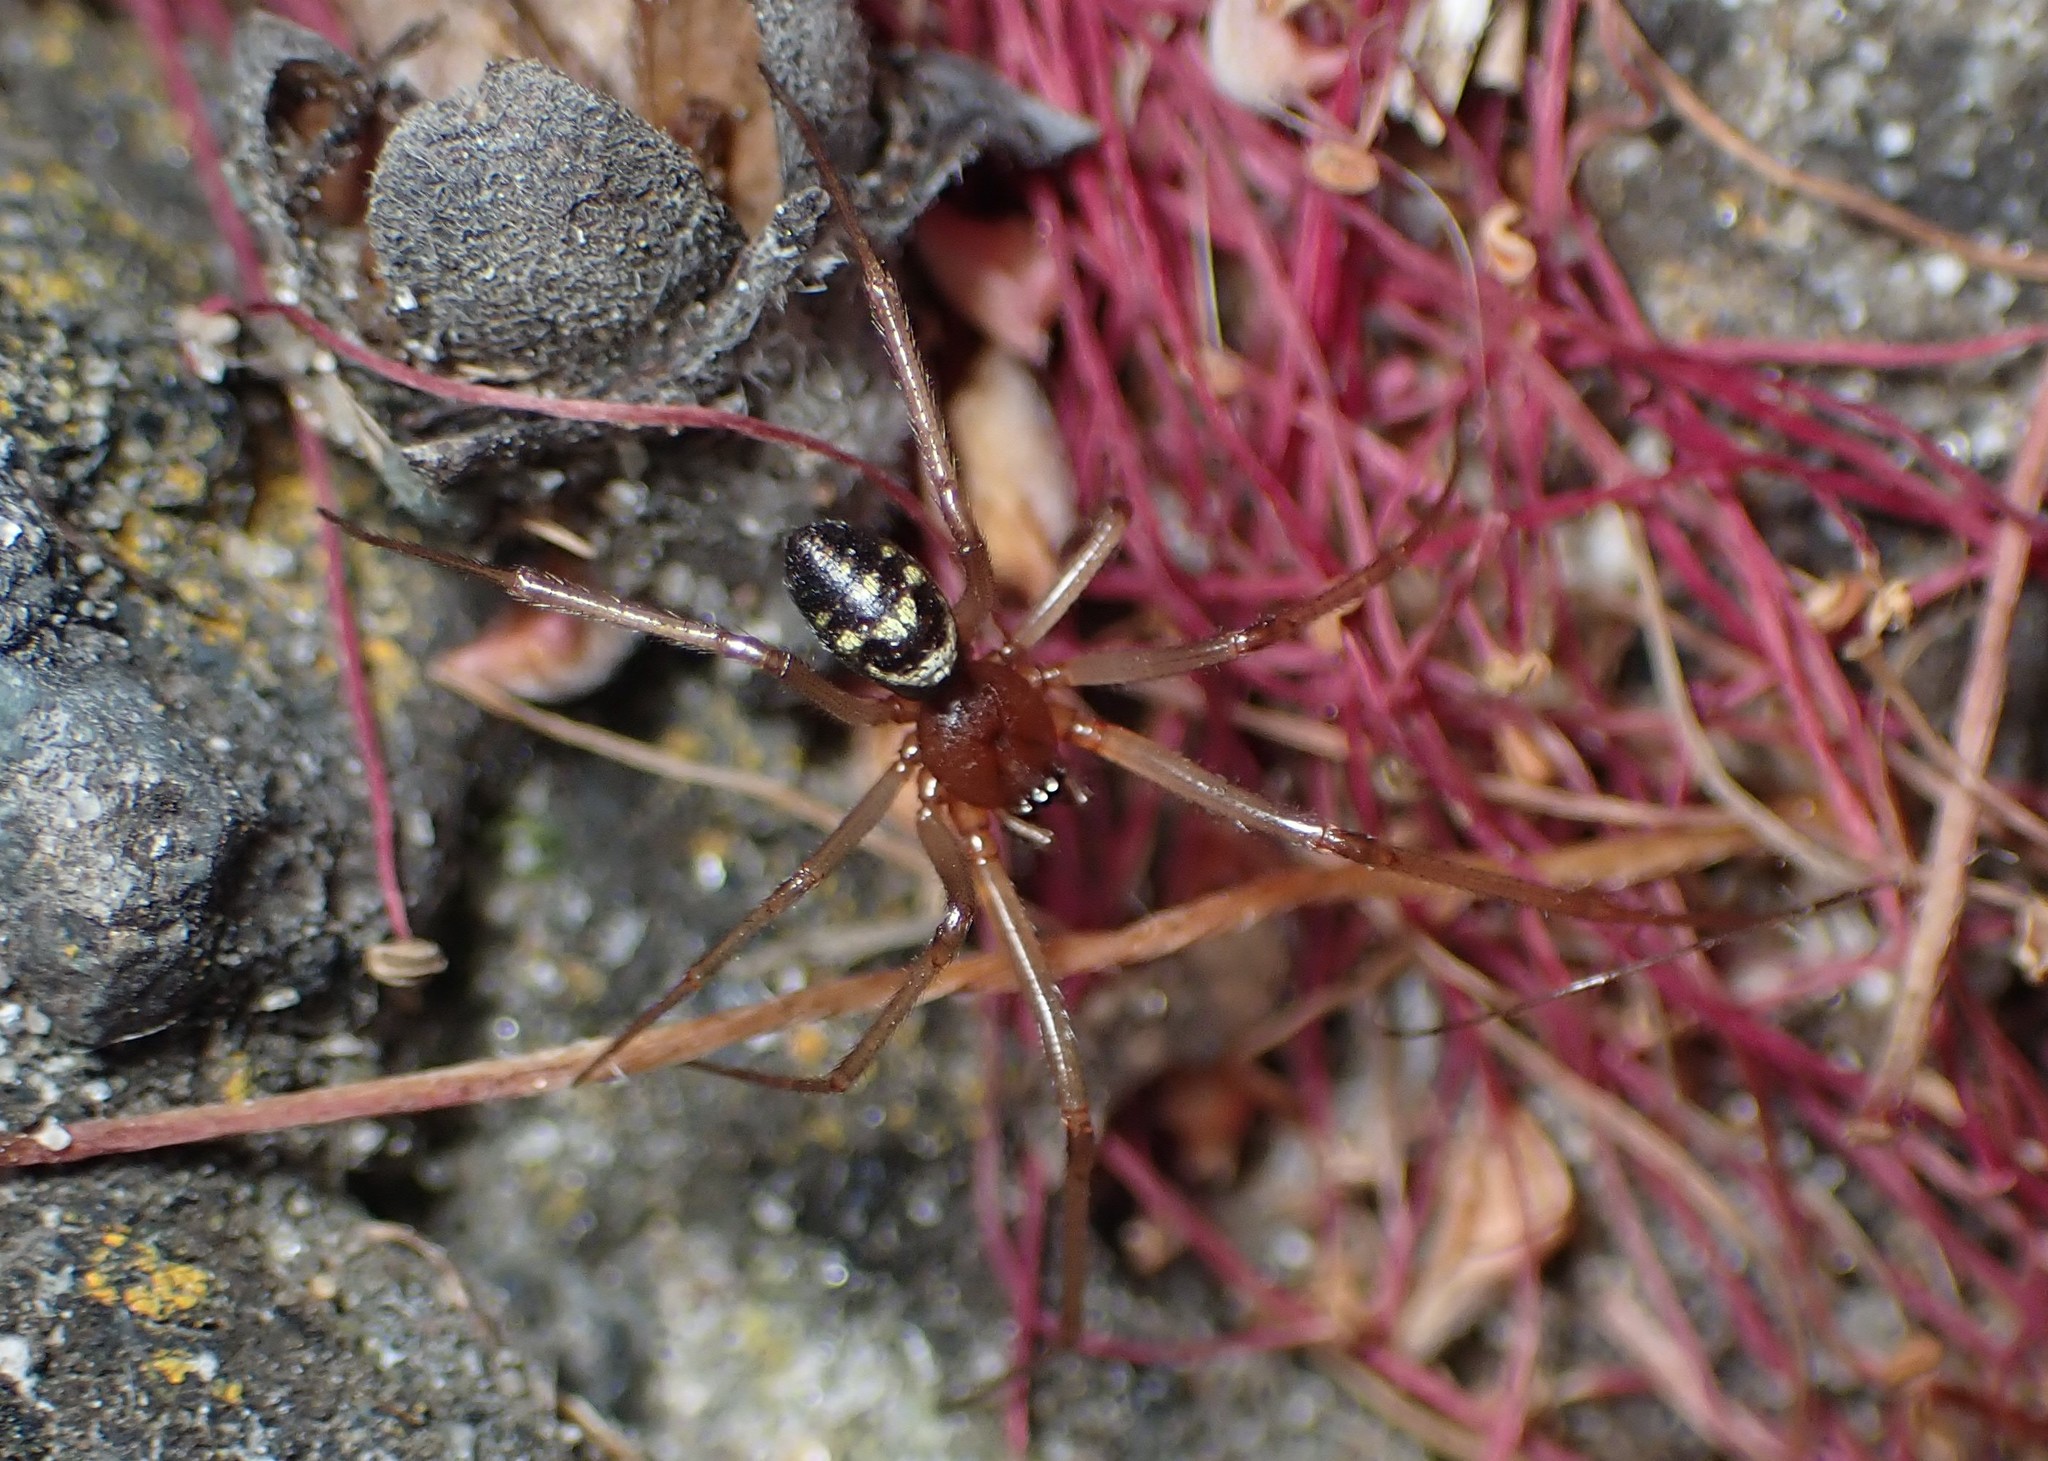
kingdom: Animalia
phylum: Arthropoda
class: Arachnida
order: Araneae
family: Theridiidae
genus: Steatoda
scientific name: Steatoda grossa
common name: False black widow
